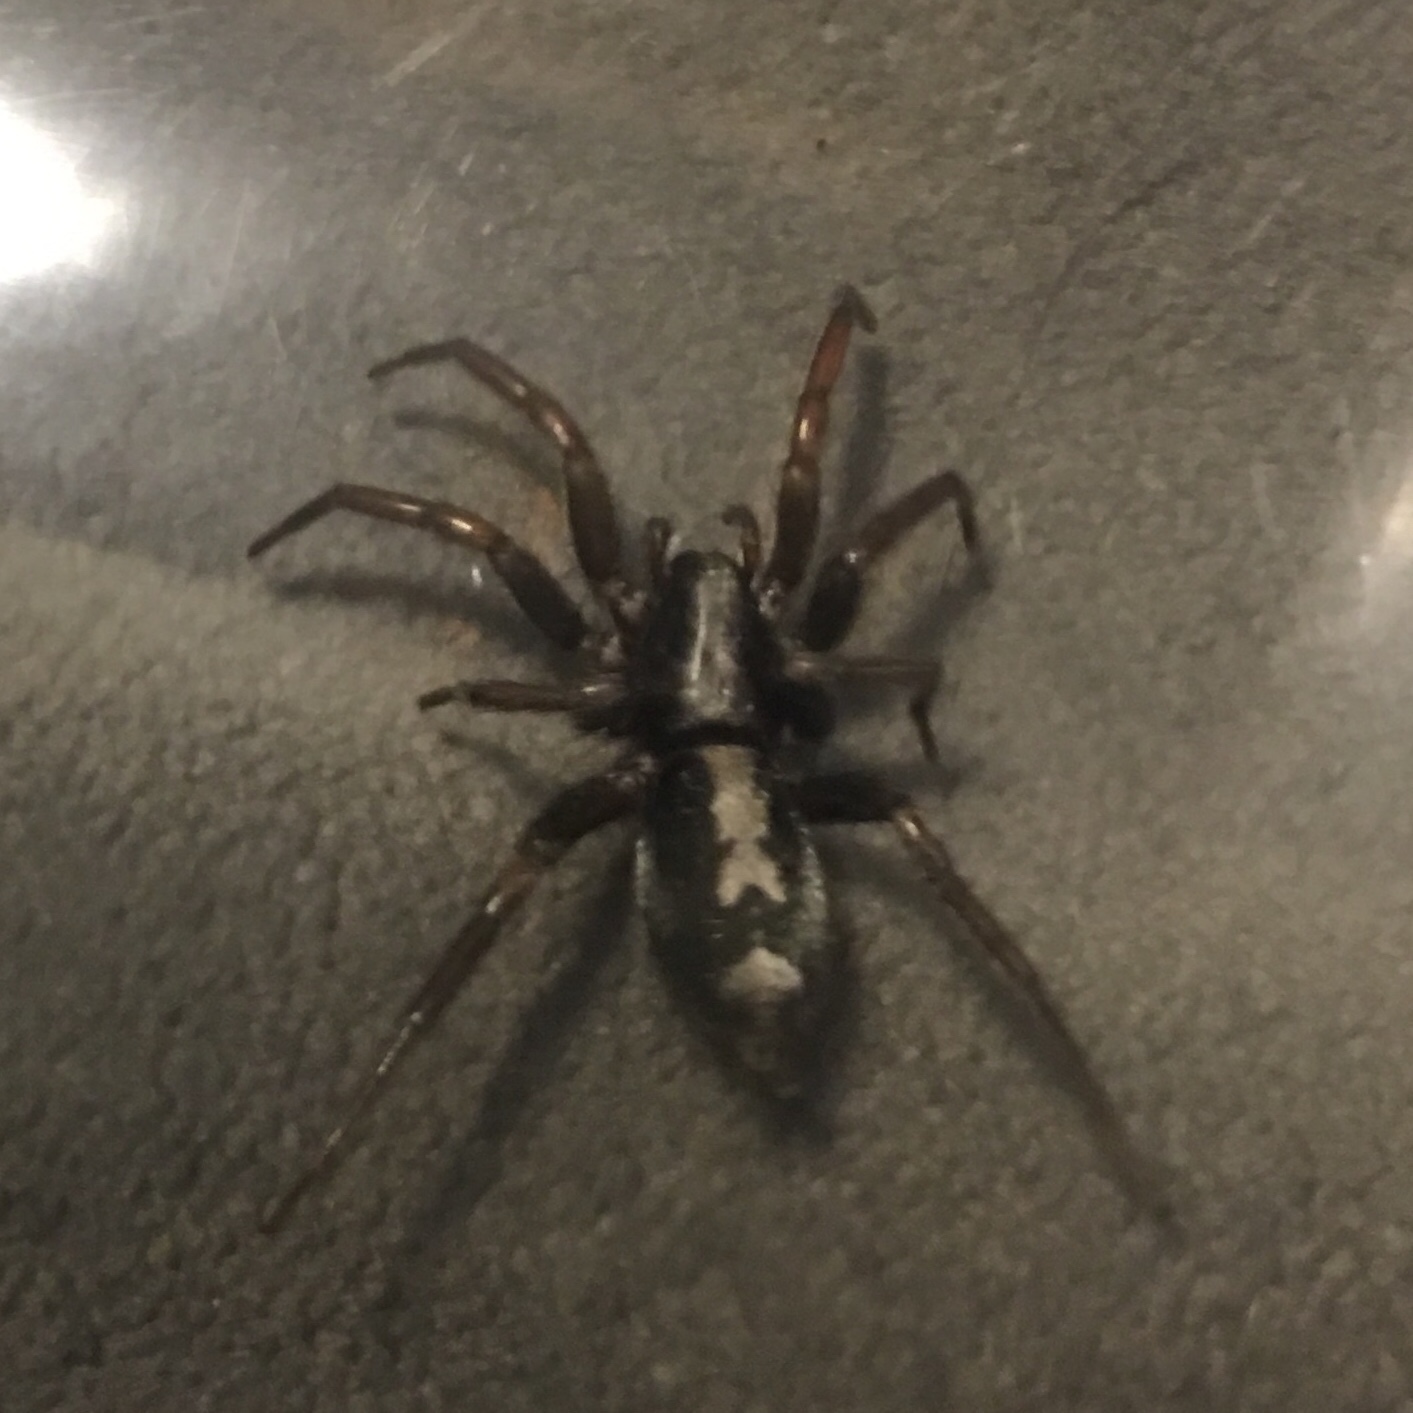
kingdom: Animalia
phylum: Arthropoda
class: Arachnida
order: Araneae
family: Gnaphosidae
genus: Herpyllus
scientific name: Herpyllus ecclesiasticus
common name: Eastern parson spider
